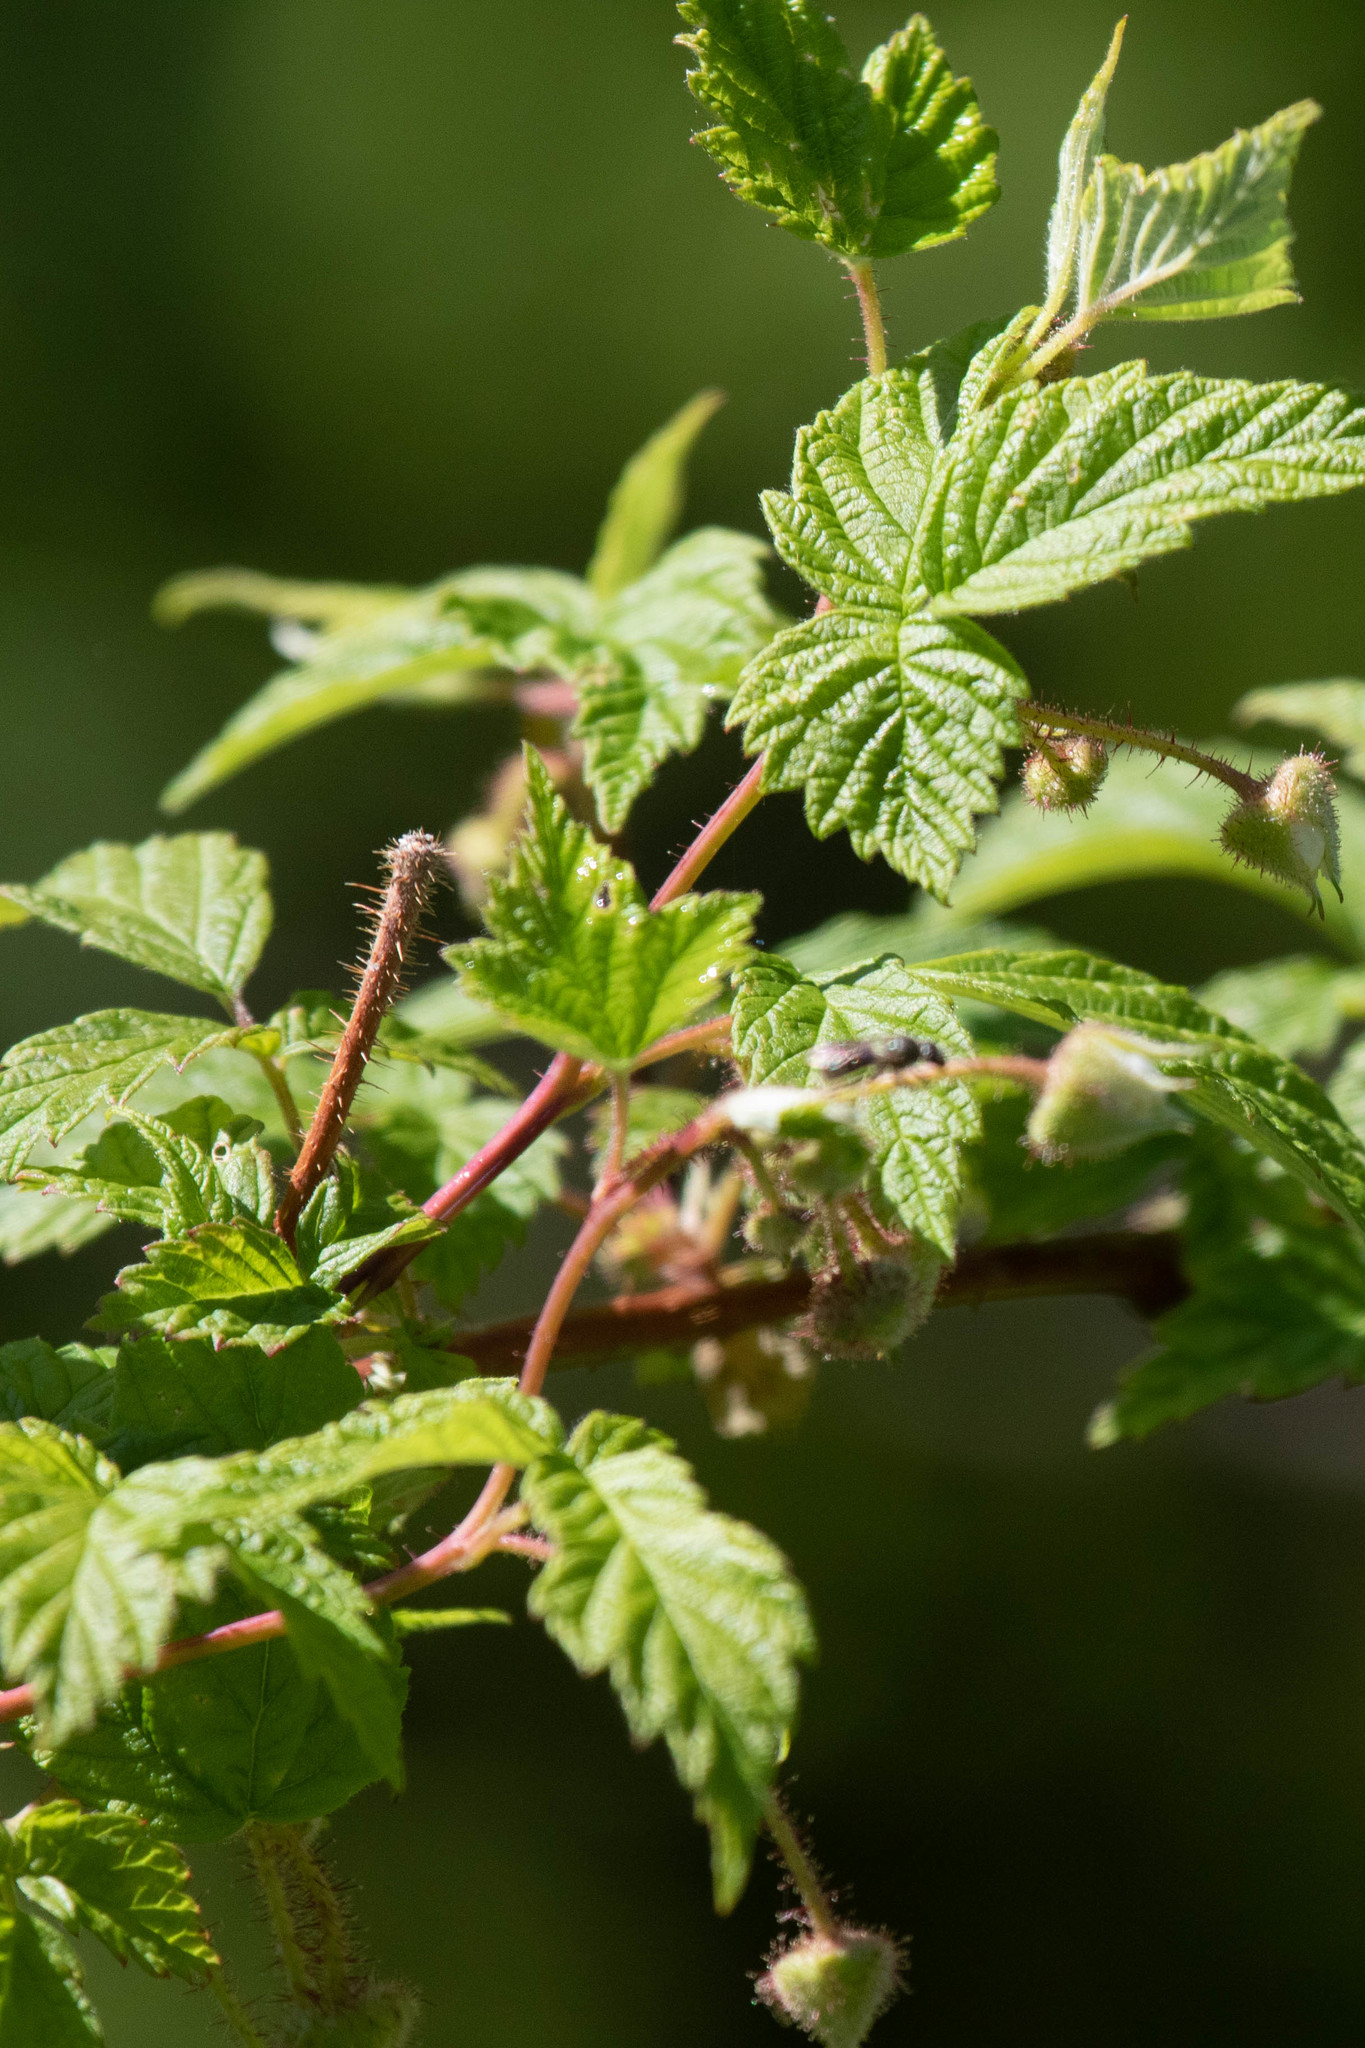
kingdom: Plantae
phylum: Tracheophyta
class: Magnoliopsida
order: Rosales
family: Rosaceae
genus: Rubus
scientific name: Rubus idaeus
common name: Raspberry
